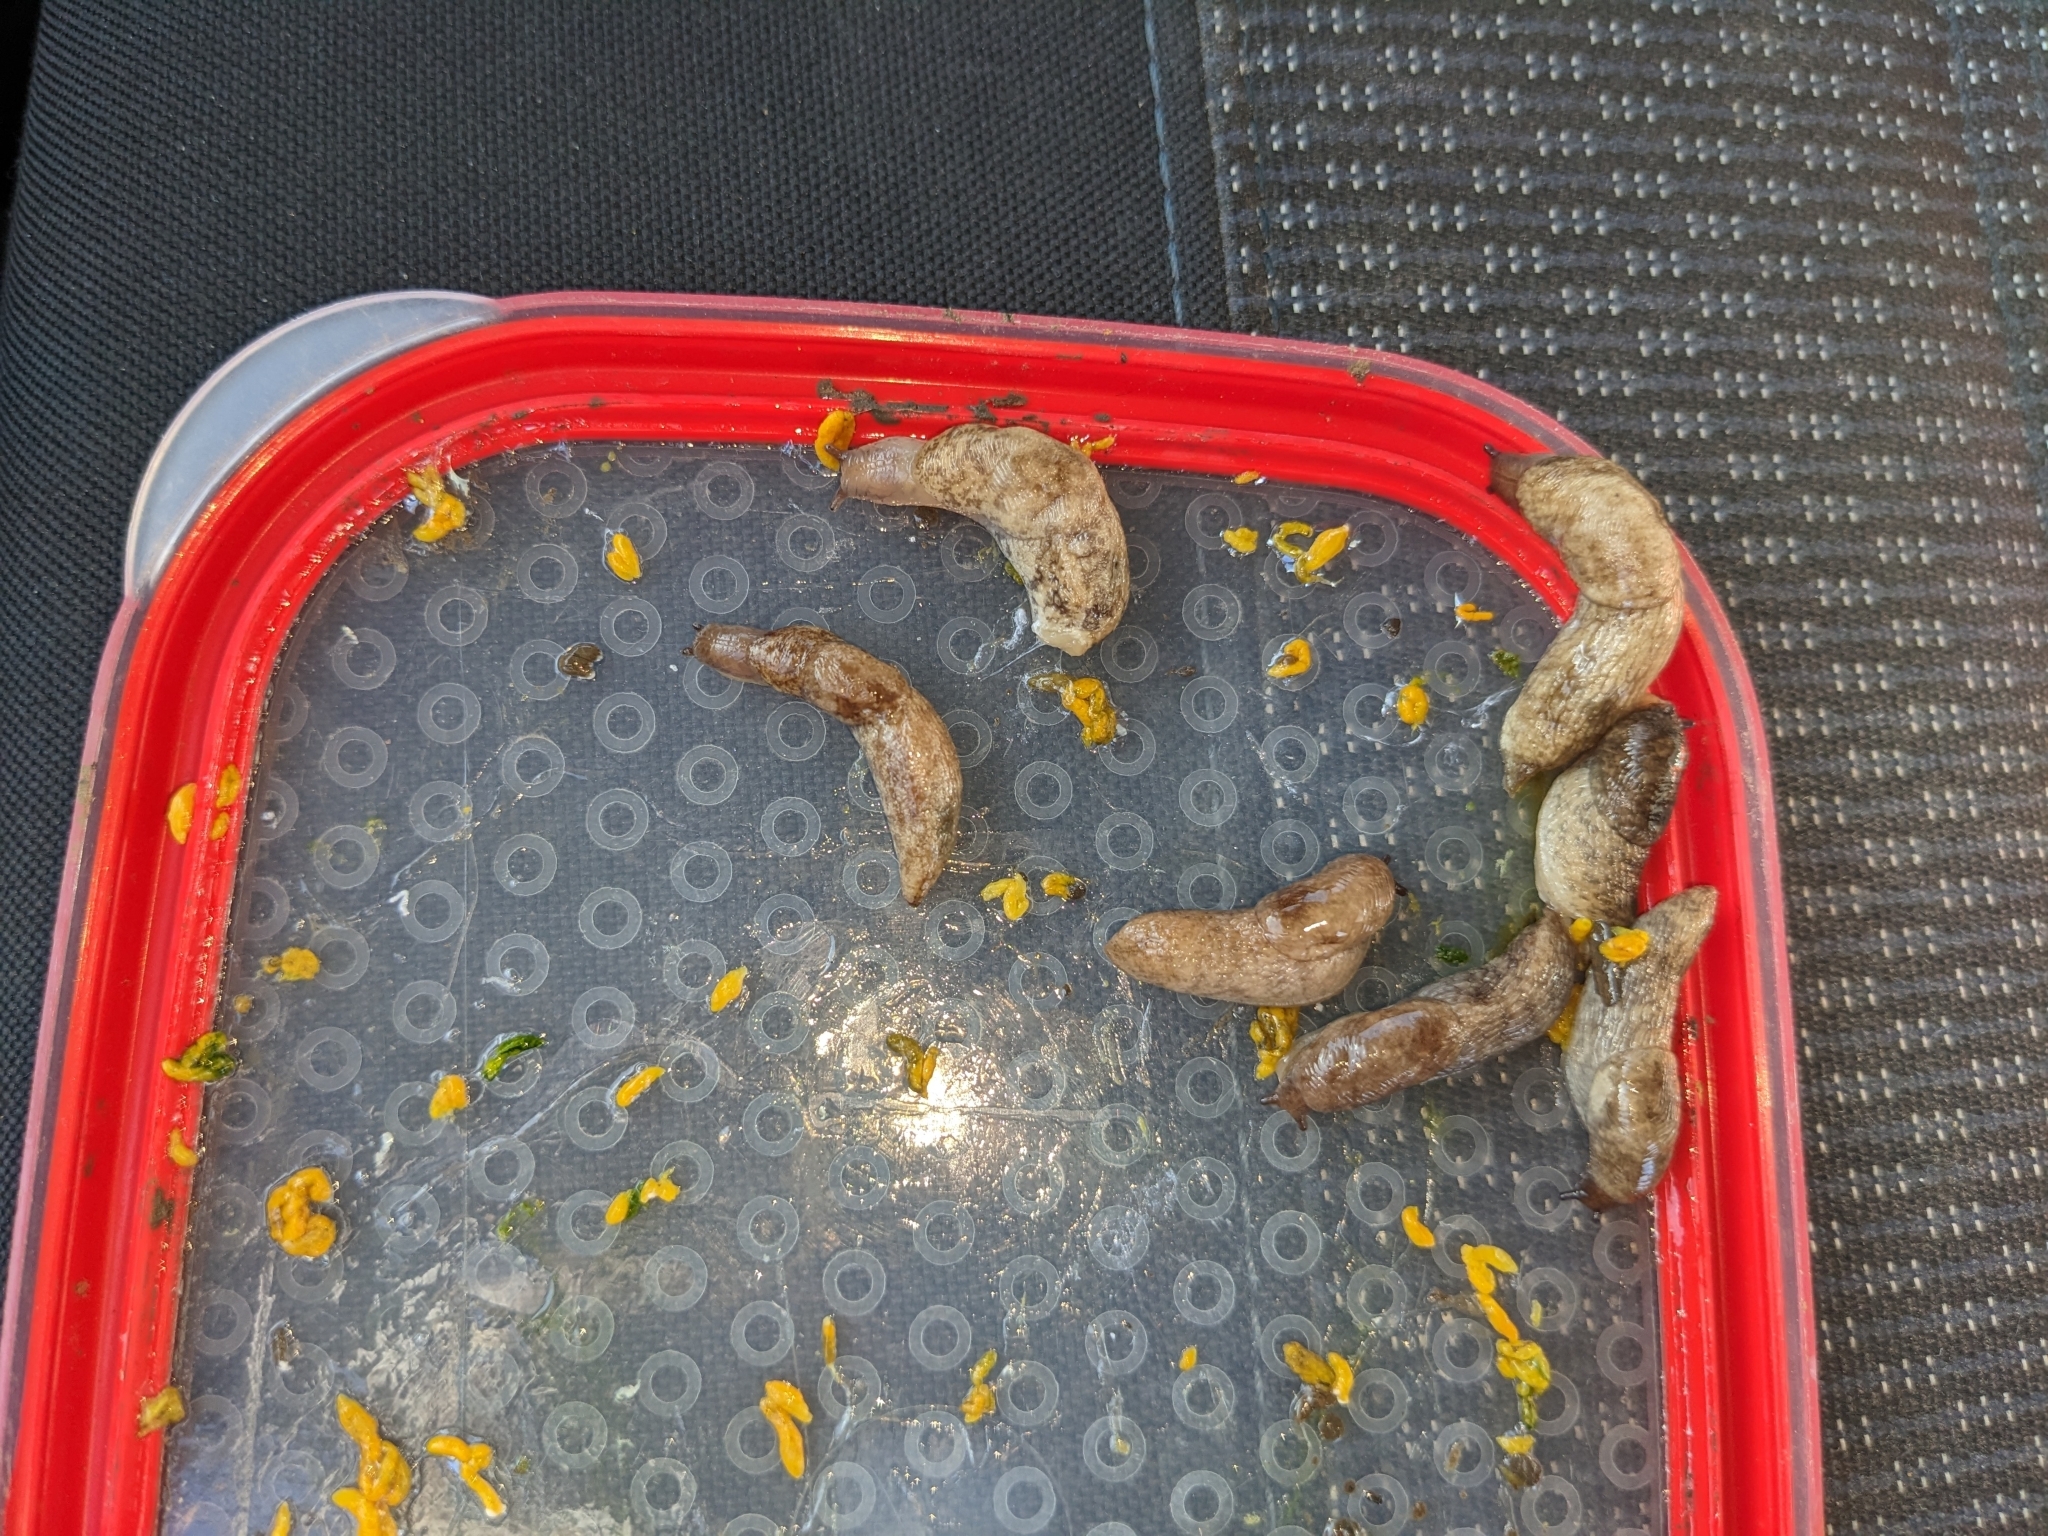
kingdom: Animalia
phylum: Mollusca
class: Gastropoda
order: Stylommatophora
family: Agriolimacidae
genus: Deroceras
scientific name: Deroceras reticulatum
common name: Gray field slug
